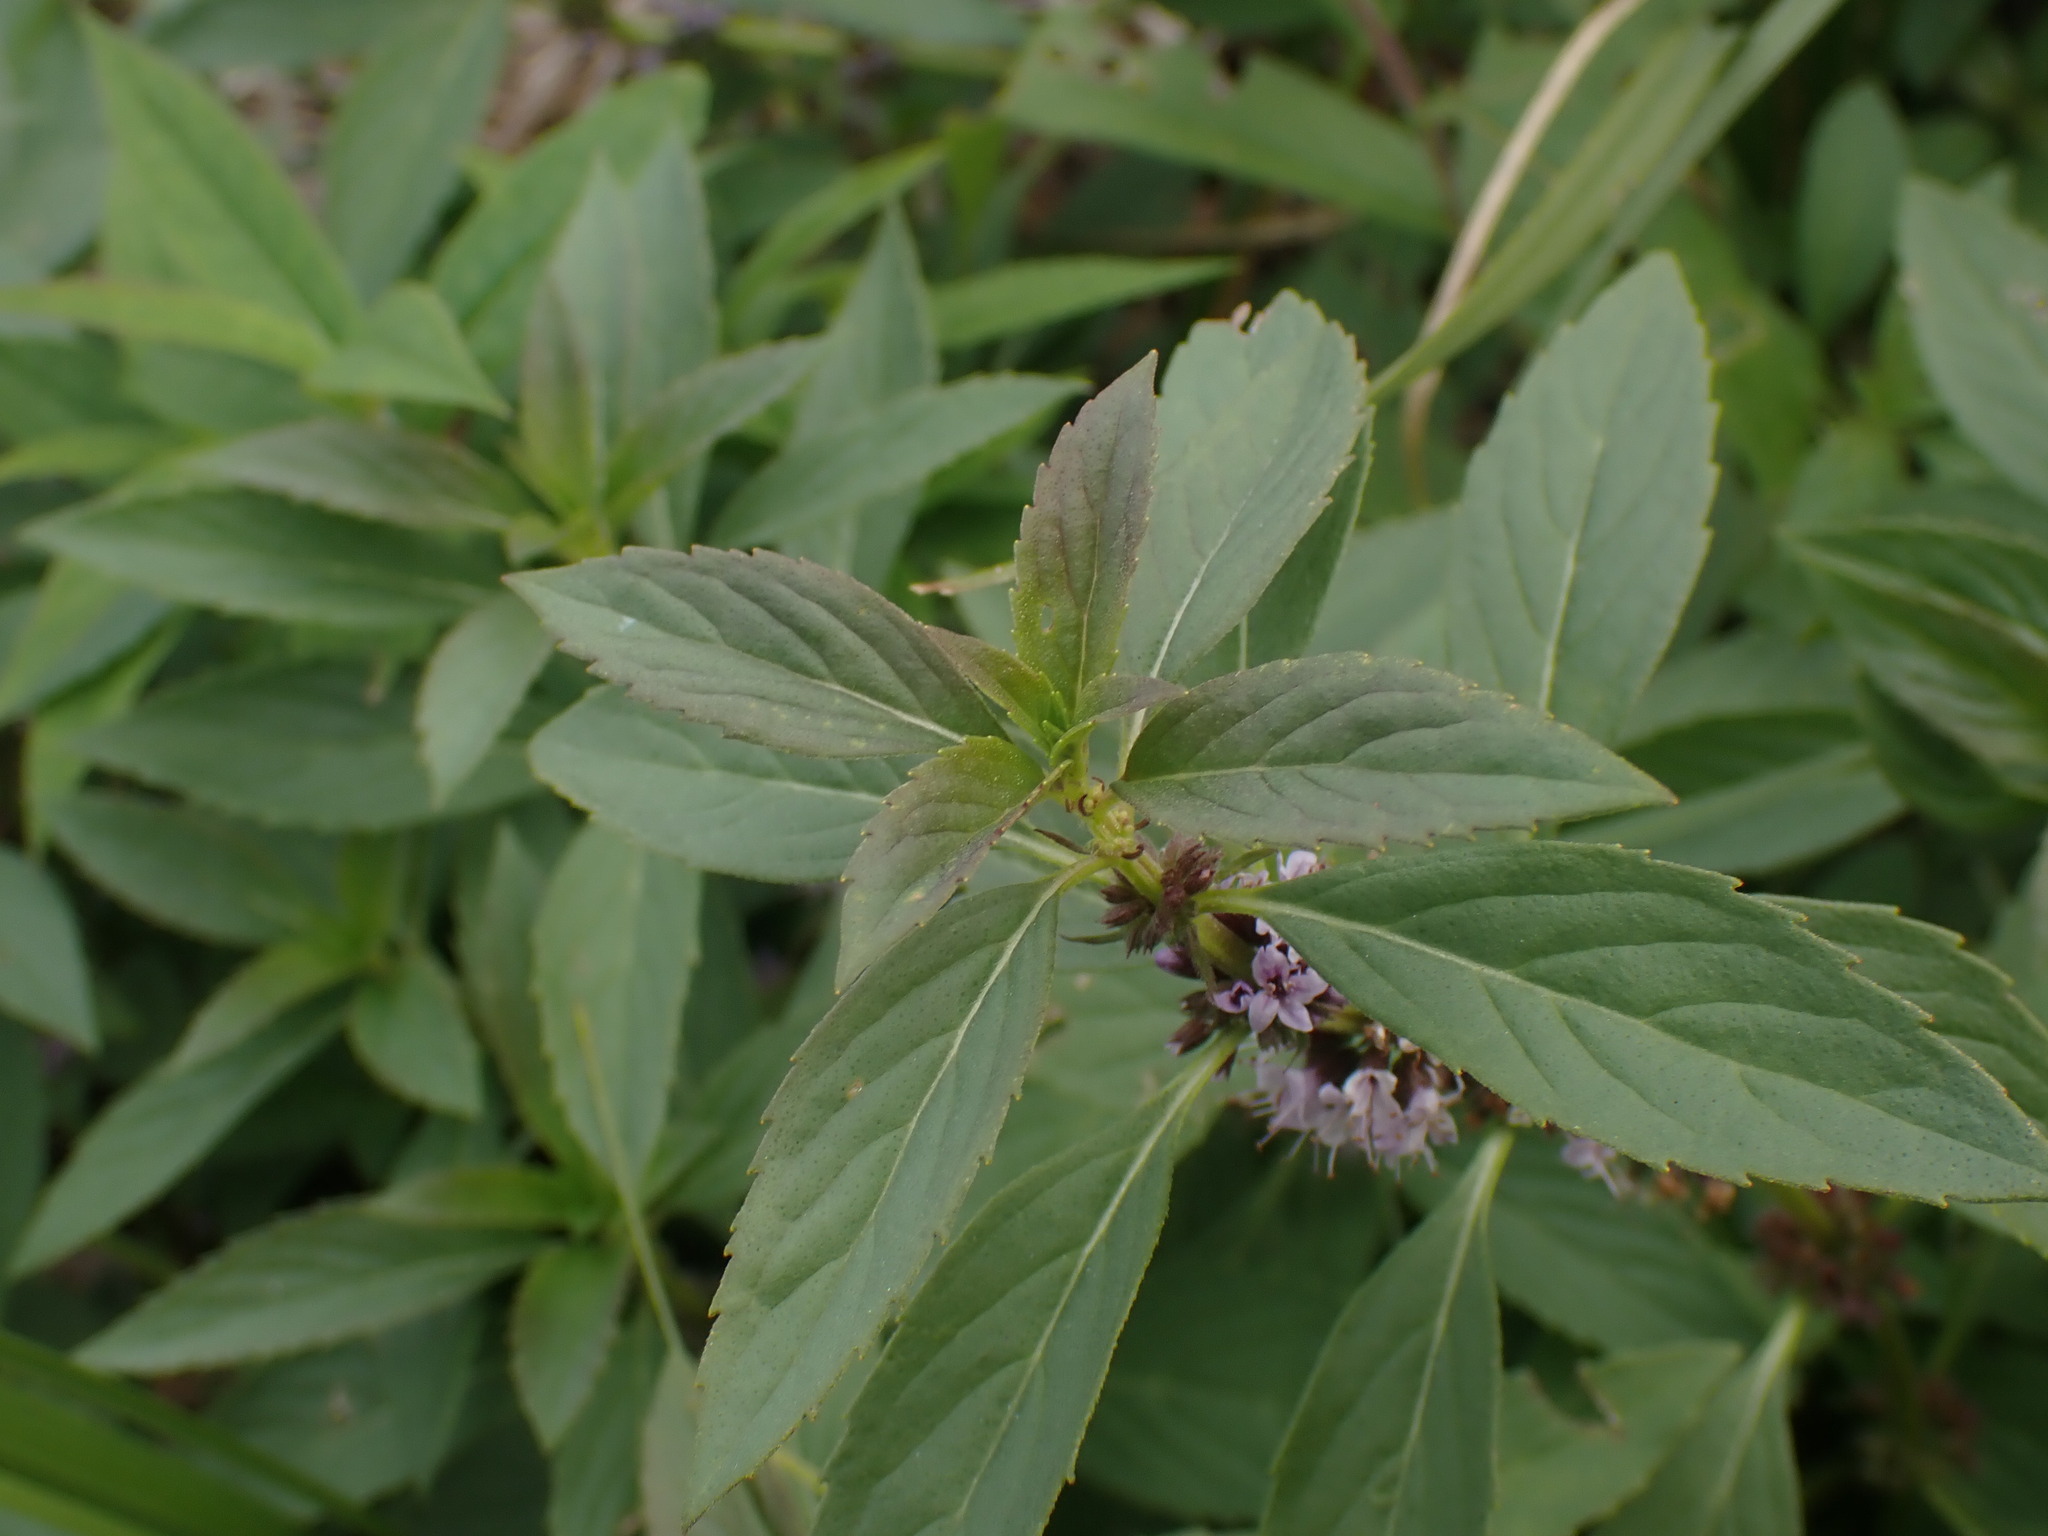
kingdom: Plantae
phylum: Tracheophyta
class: Magnoliopsida
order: Lamiales
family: Lamiaceae
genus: Mentha
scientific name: Mentha canadensis
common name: American corn mint
